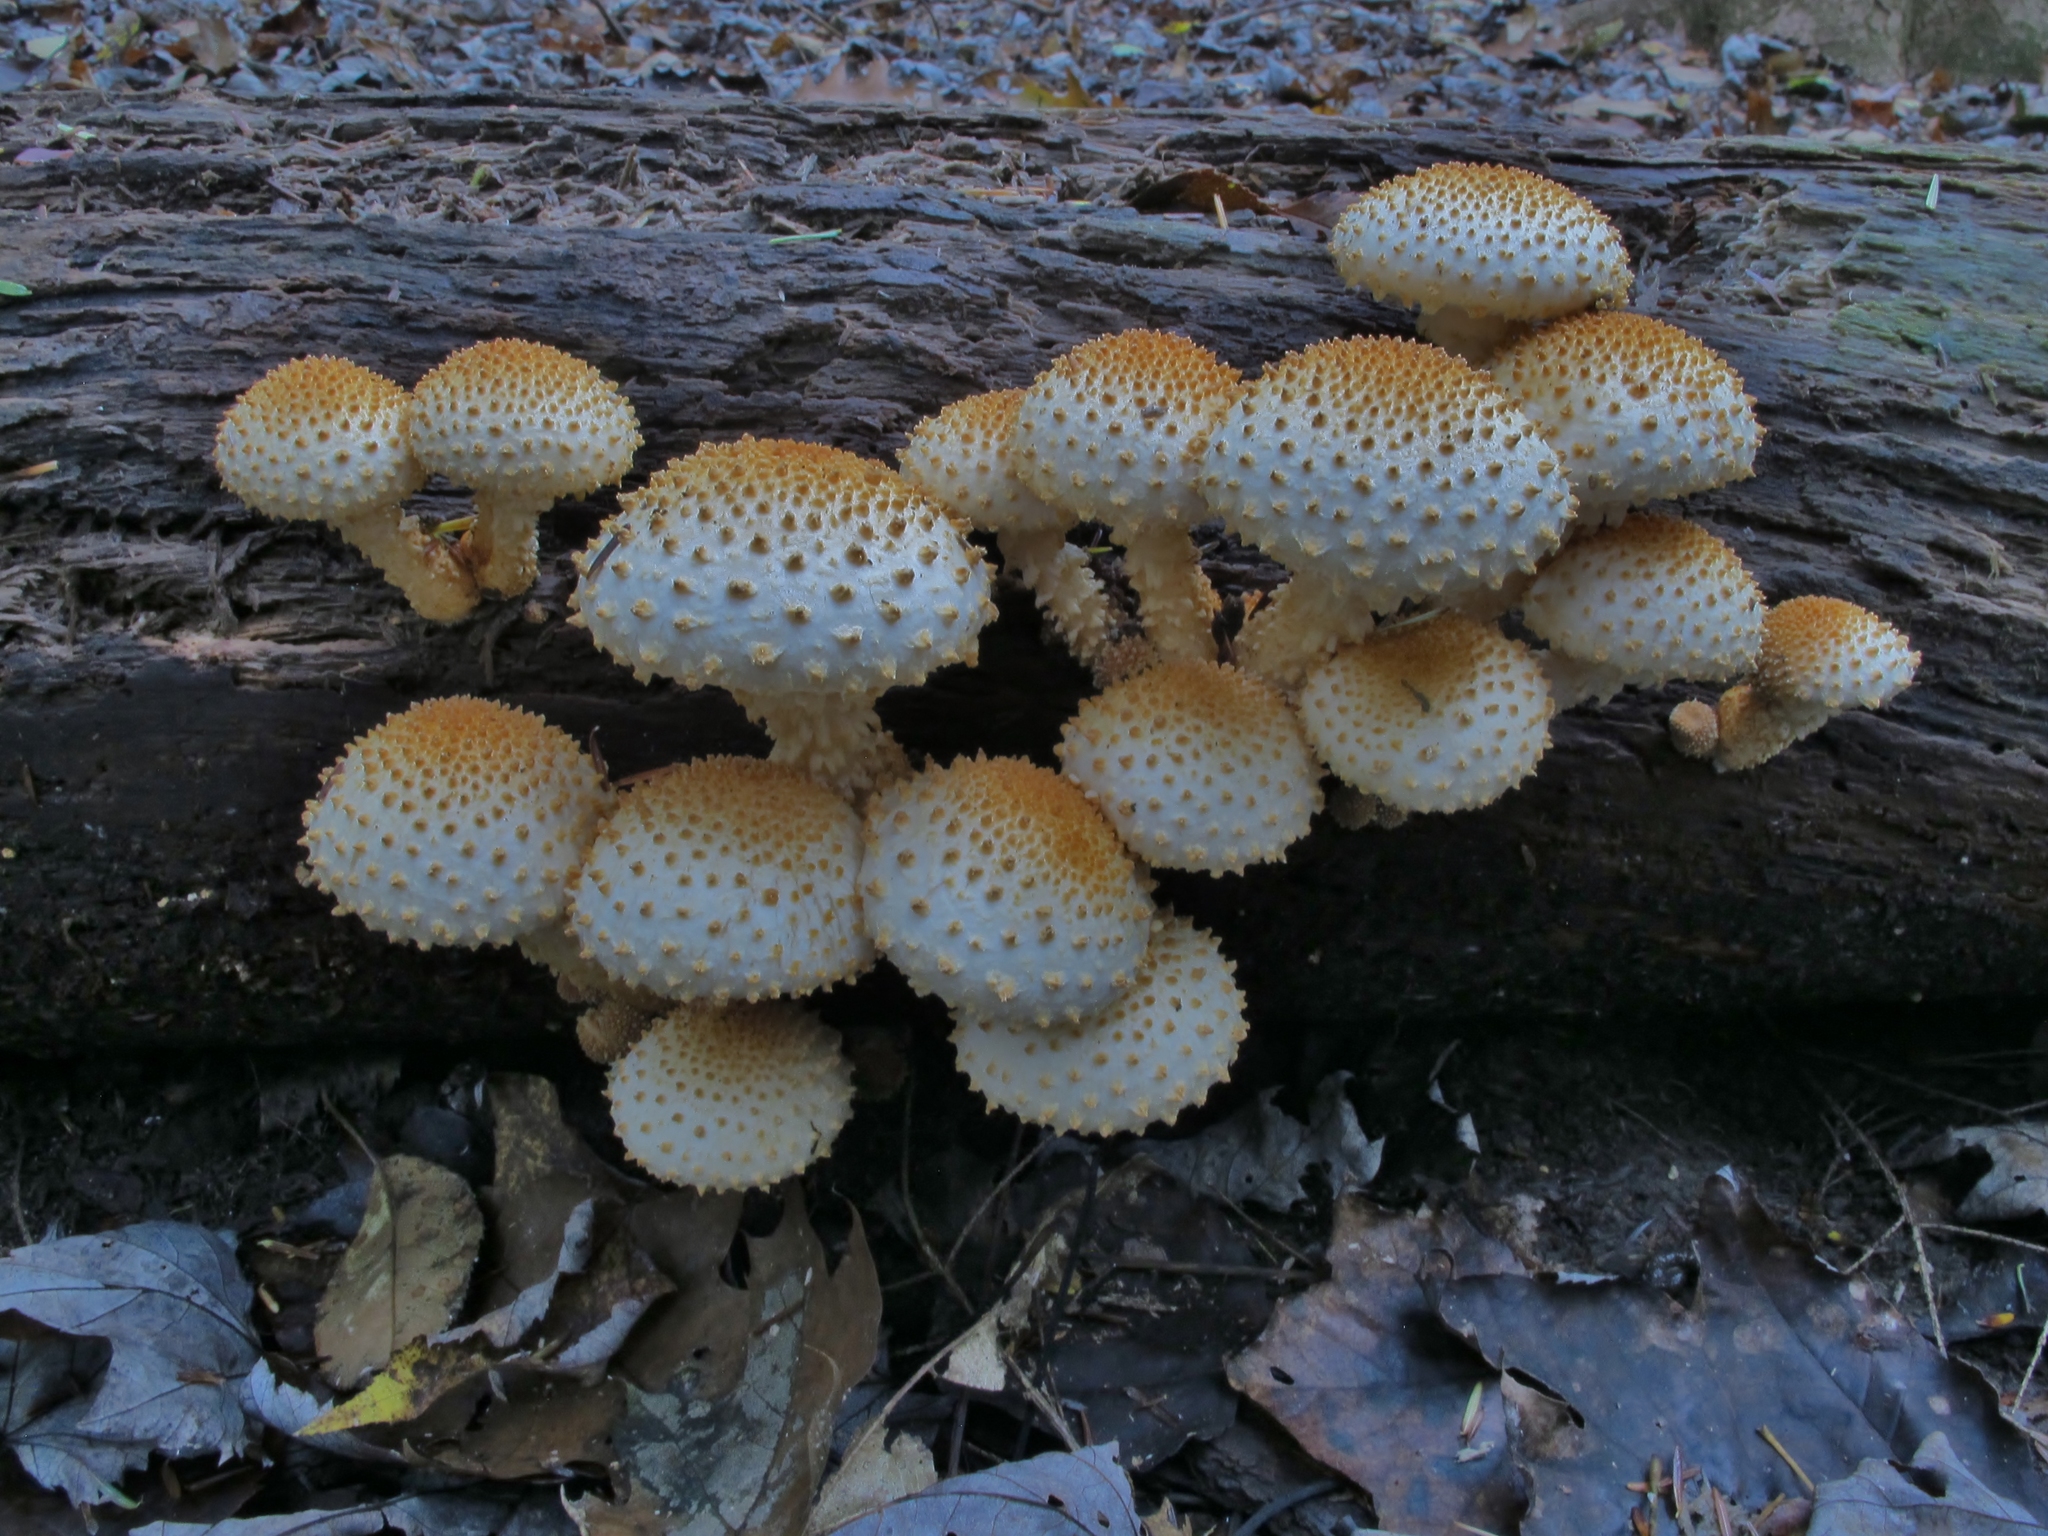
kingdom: Fungi
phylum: Basidiomycota
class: Agaricomycetes
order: Agaricales
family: Strophariaceae
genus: Pholiota
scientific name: Pholiota squarrosoides
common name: Sharp-scaly pholiota
